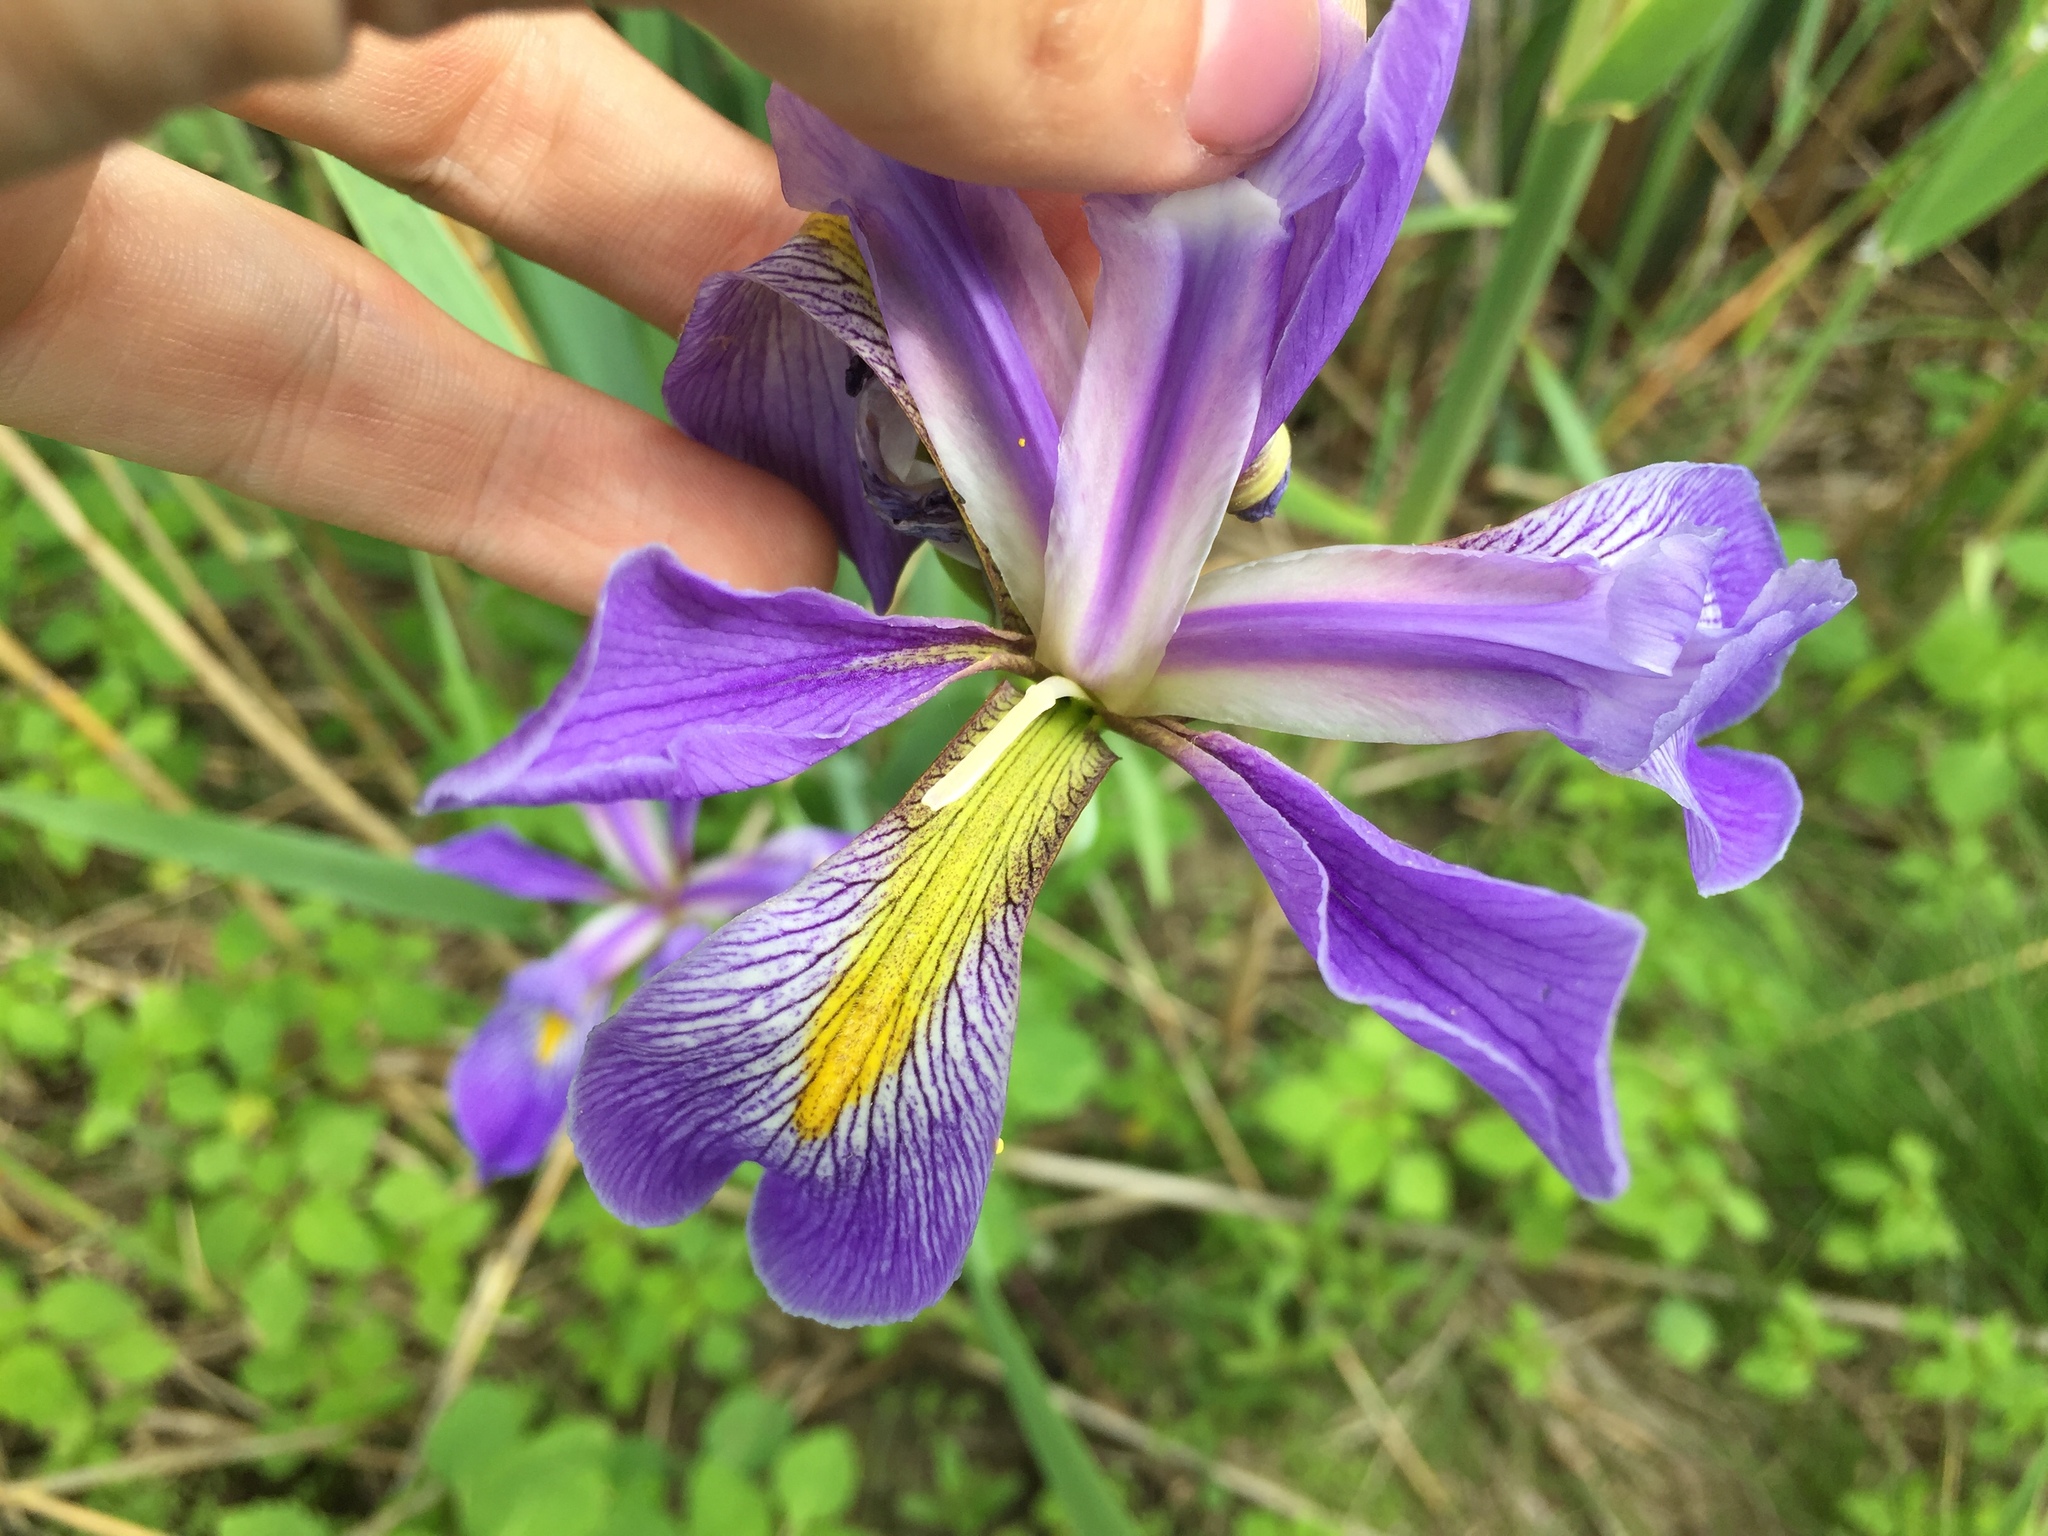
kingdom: Plantae
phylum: Tracheophyta
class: Liliopsida
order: Asparagales
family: Iridaceae
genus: Iris
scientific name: Iris virginica
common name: Southern blue flag
